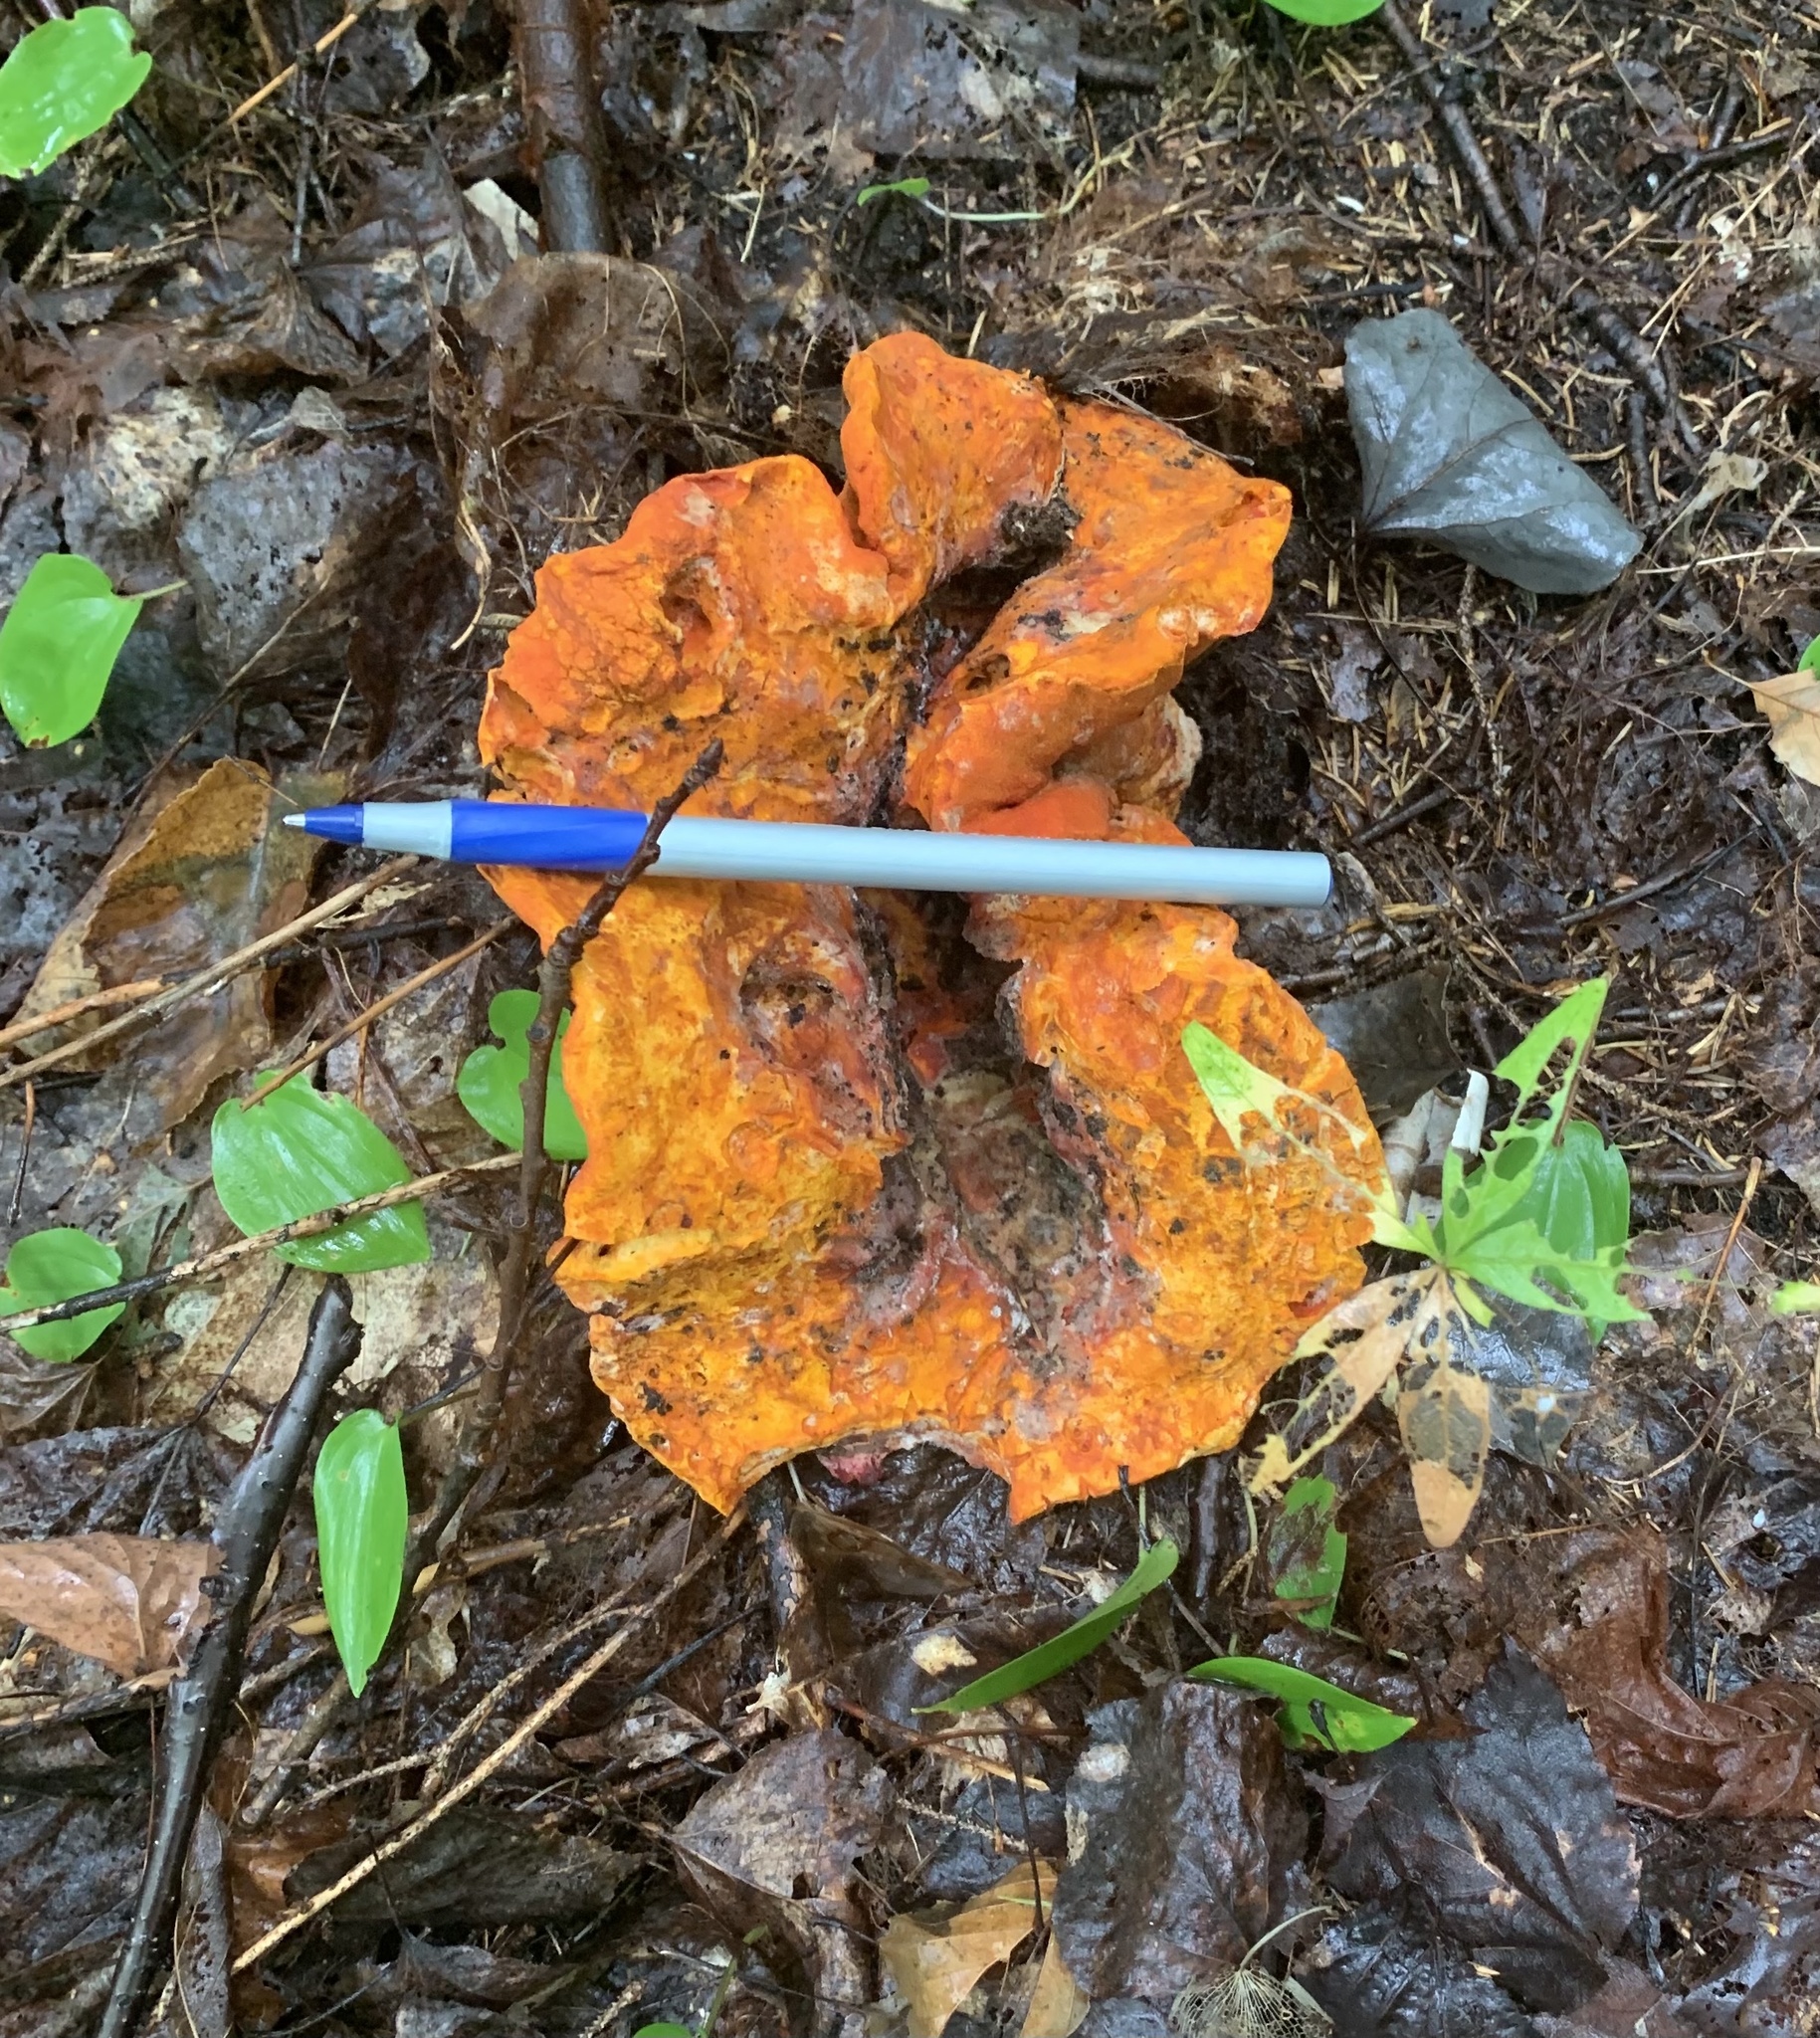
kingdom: Fungi
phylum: Ascomycota
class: Sordariomycetes
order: Hypocreales
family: Hypocreaceae
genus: Hypomyces
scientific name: Hypomyces lactifluorum
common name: Lobster mushroom
